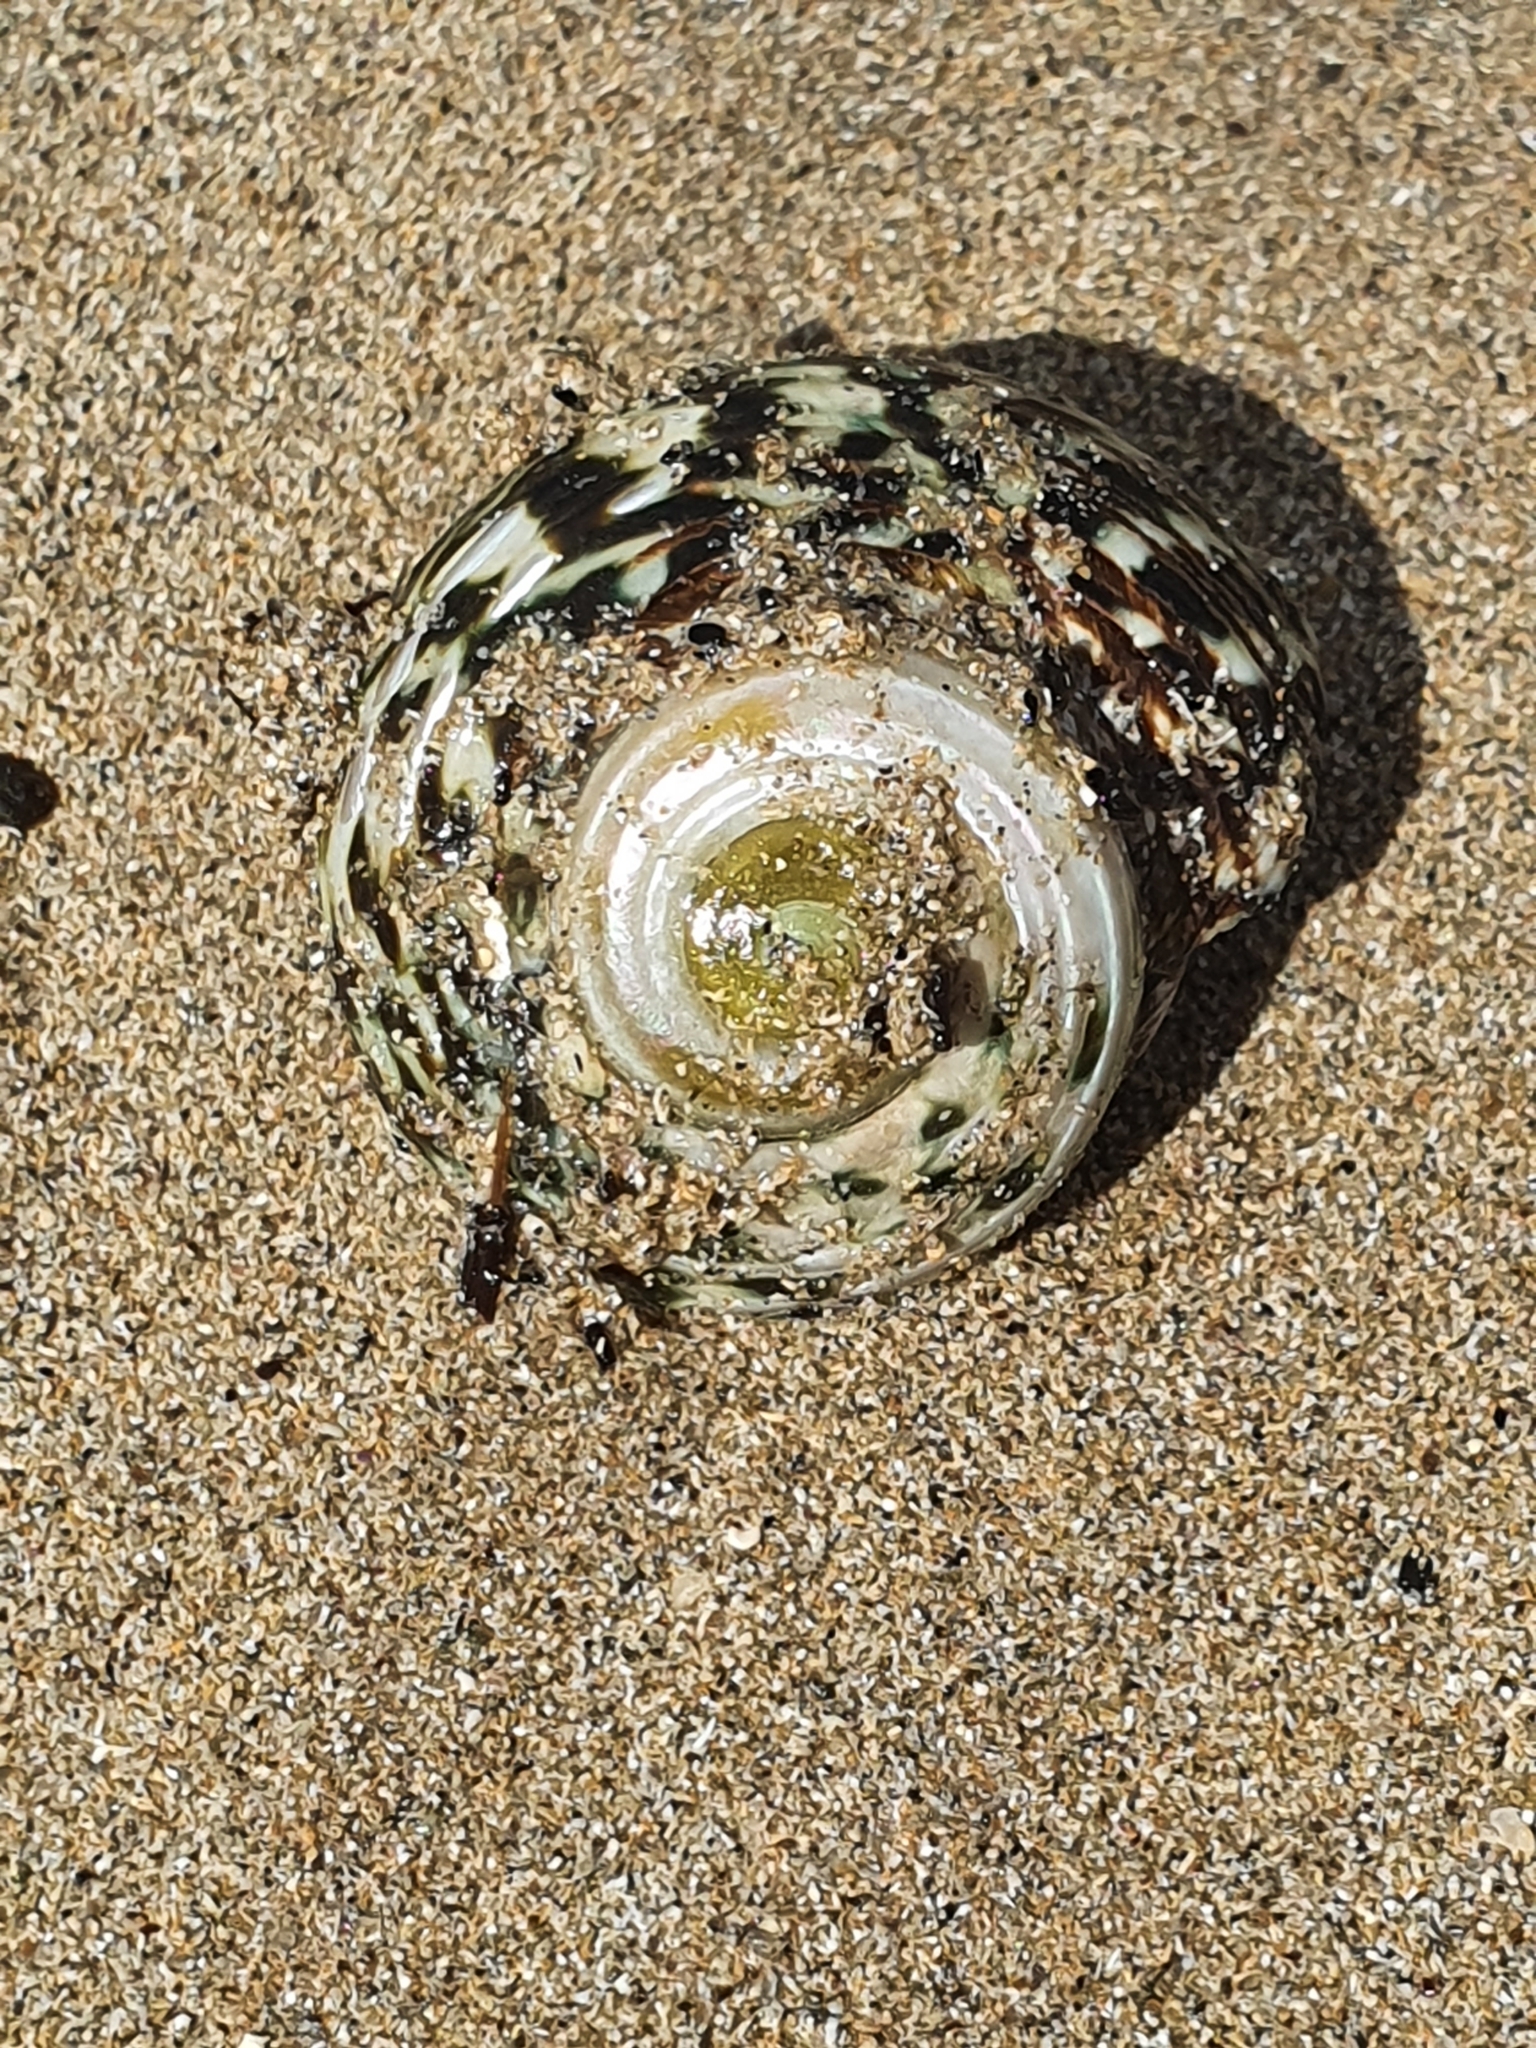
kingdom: Animalia
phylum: Mollusca
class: Gastropoda
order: Trochida
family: Turbinidae
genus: Lunella
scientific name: Lunella undulata
